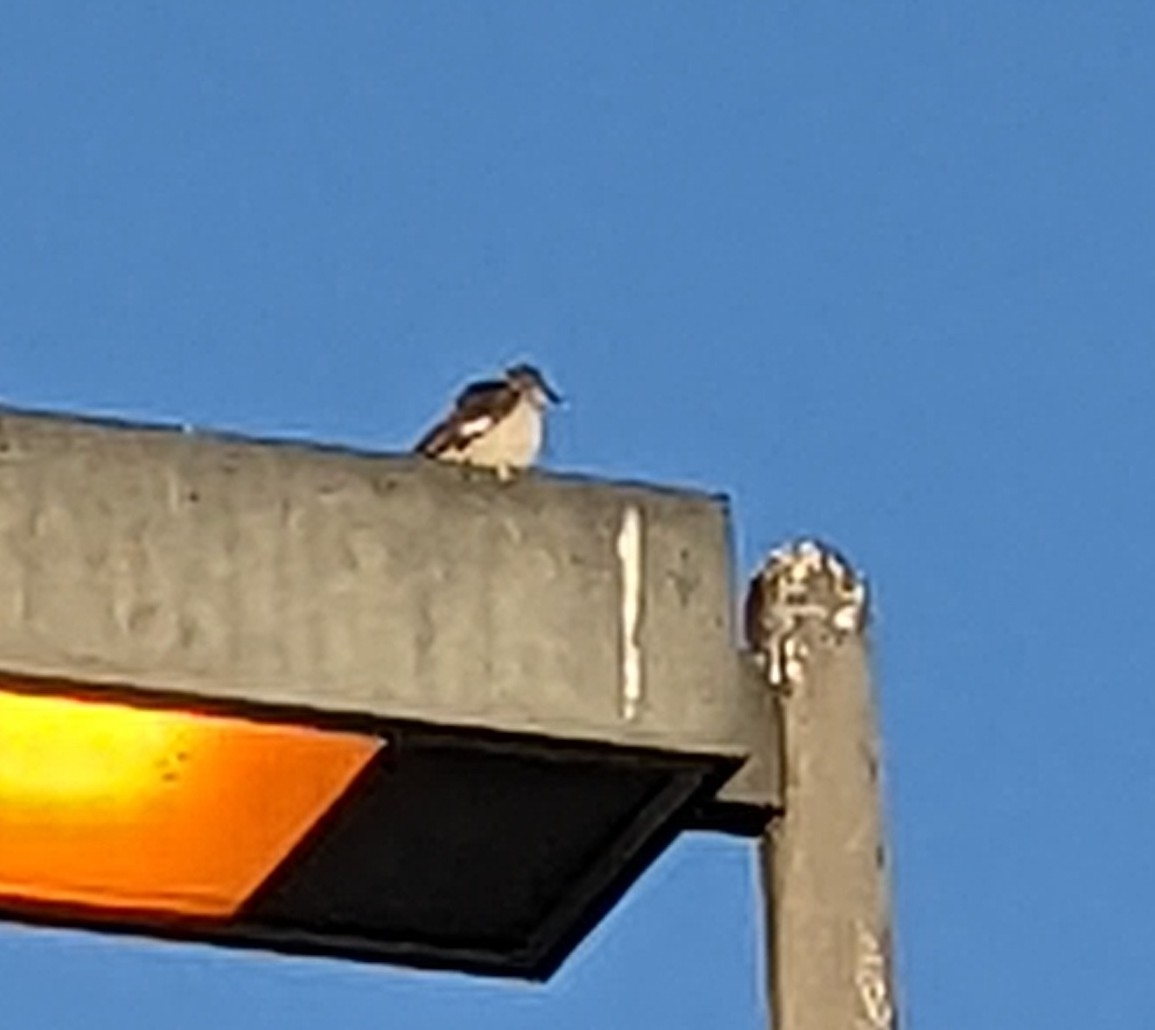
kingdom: Animalia
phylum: Chordata
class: Aves
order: Passeriformes
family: Mimidae
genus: Mimus
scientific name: Mimus polyglottos
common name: Northern mockingbird
